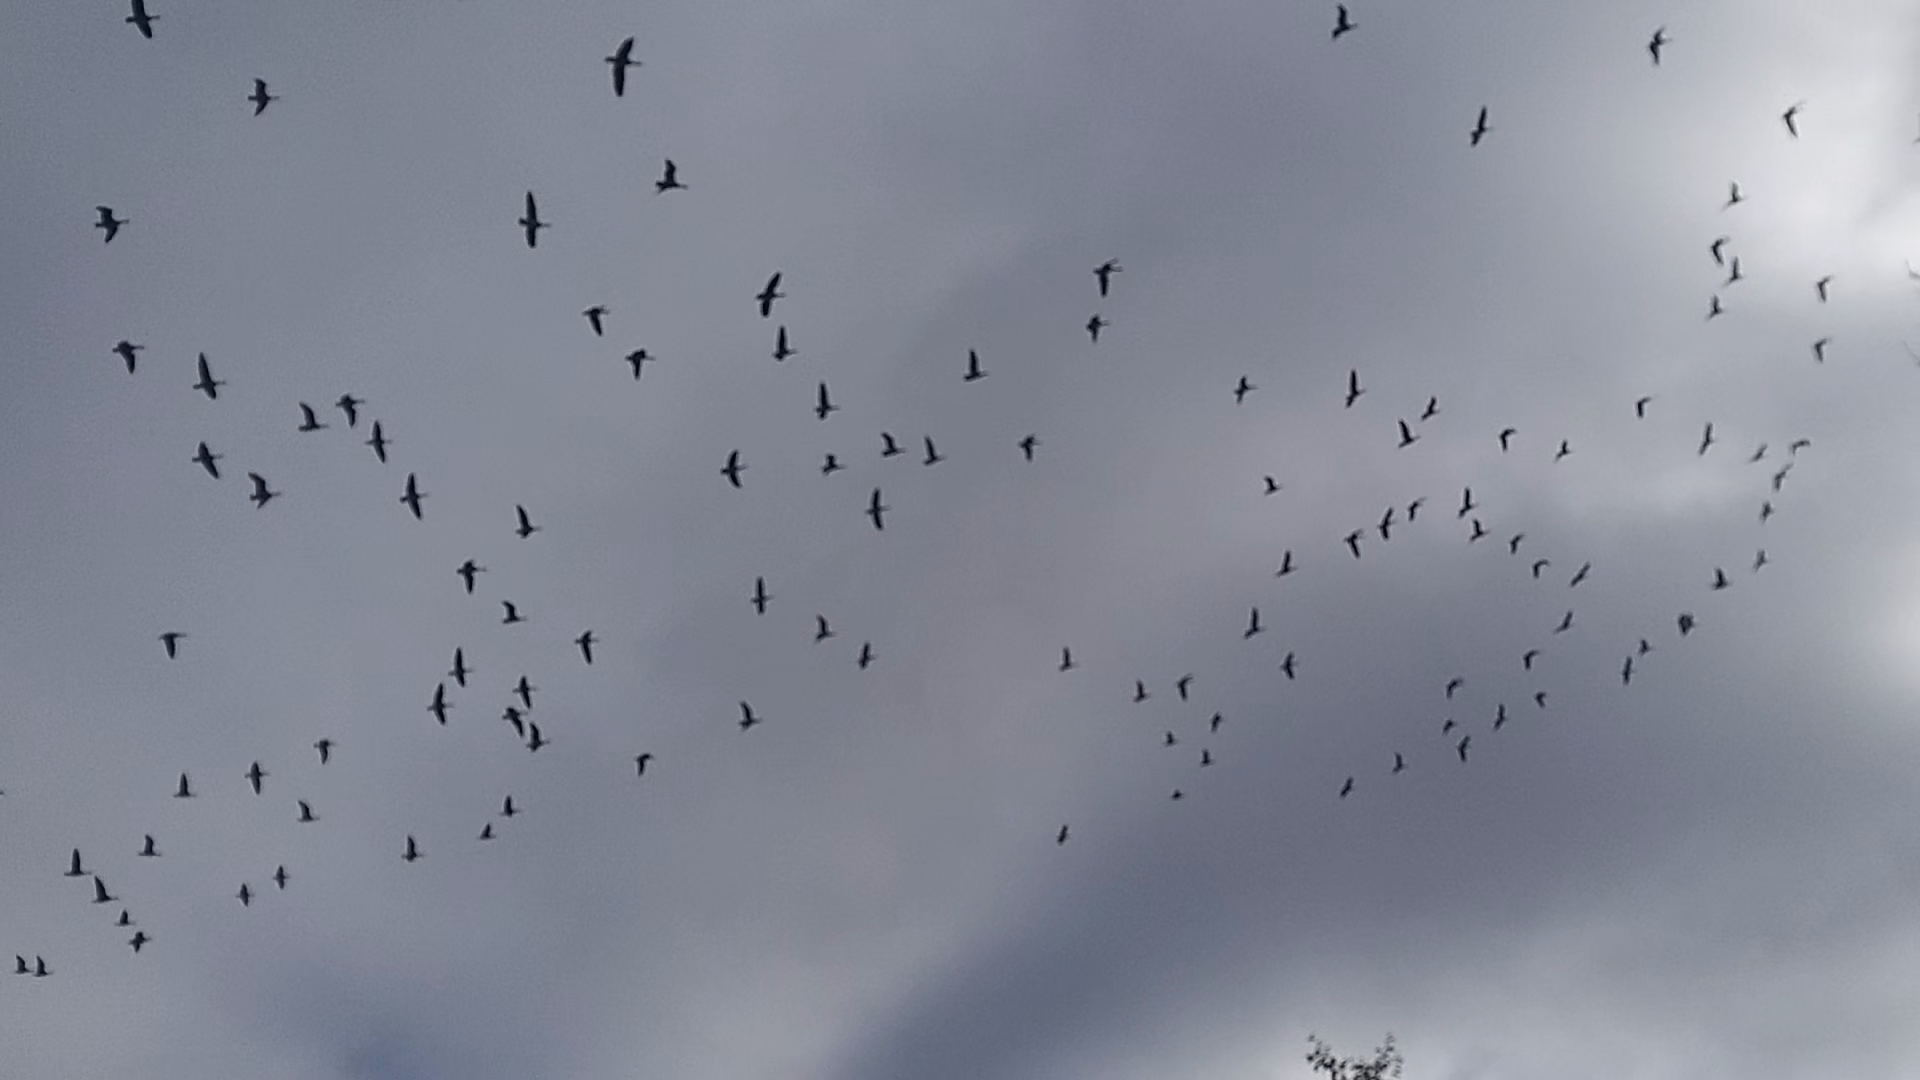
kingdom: Animalia
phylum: Chordata
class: Aves
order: Anseriformes
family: Anatidae
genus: Branta
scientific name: Branta leucopsis
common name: Barnacle goose
